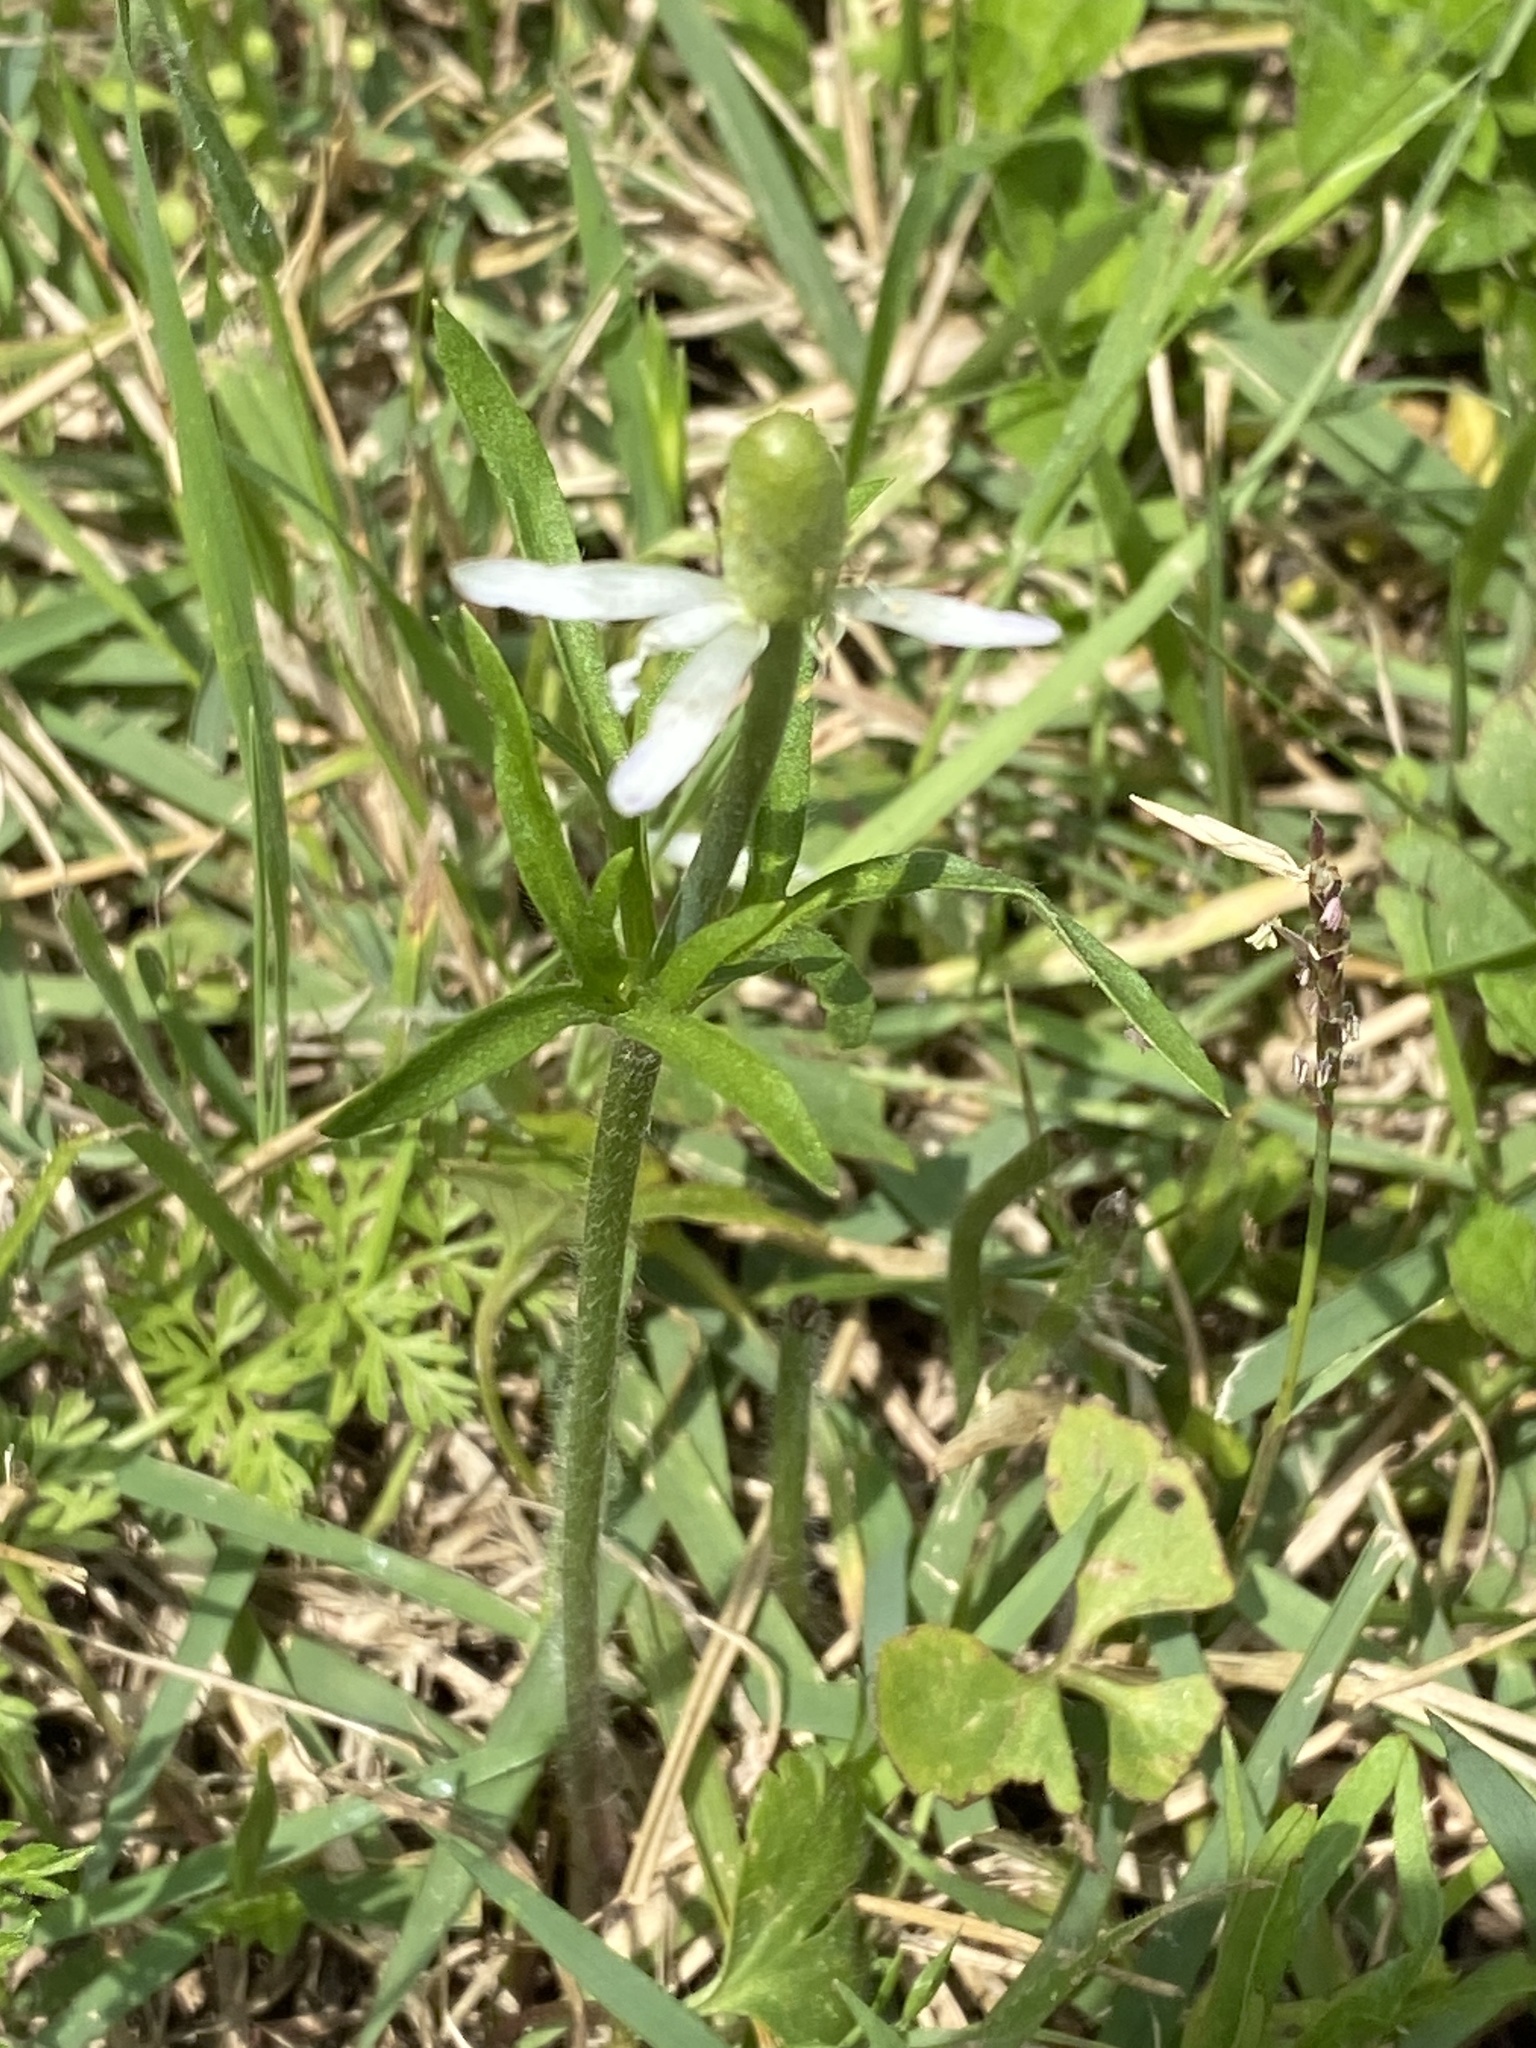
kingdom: Plantae
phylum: Tracheophyta
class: Magnoliopsida
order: Ranunculales
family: Ranunculaceae
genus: Anemone
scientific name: Anemone berlandieri
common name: Ten-petal anemone
